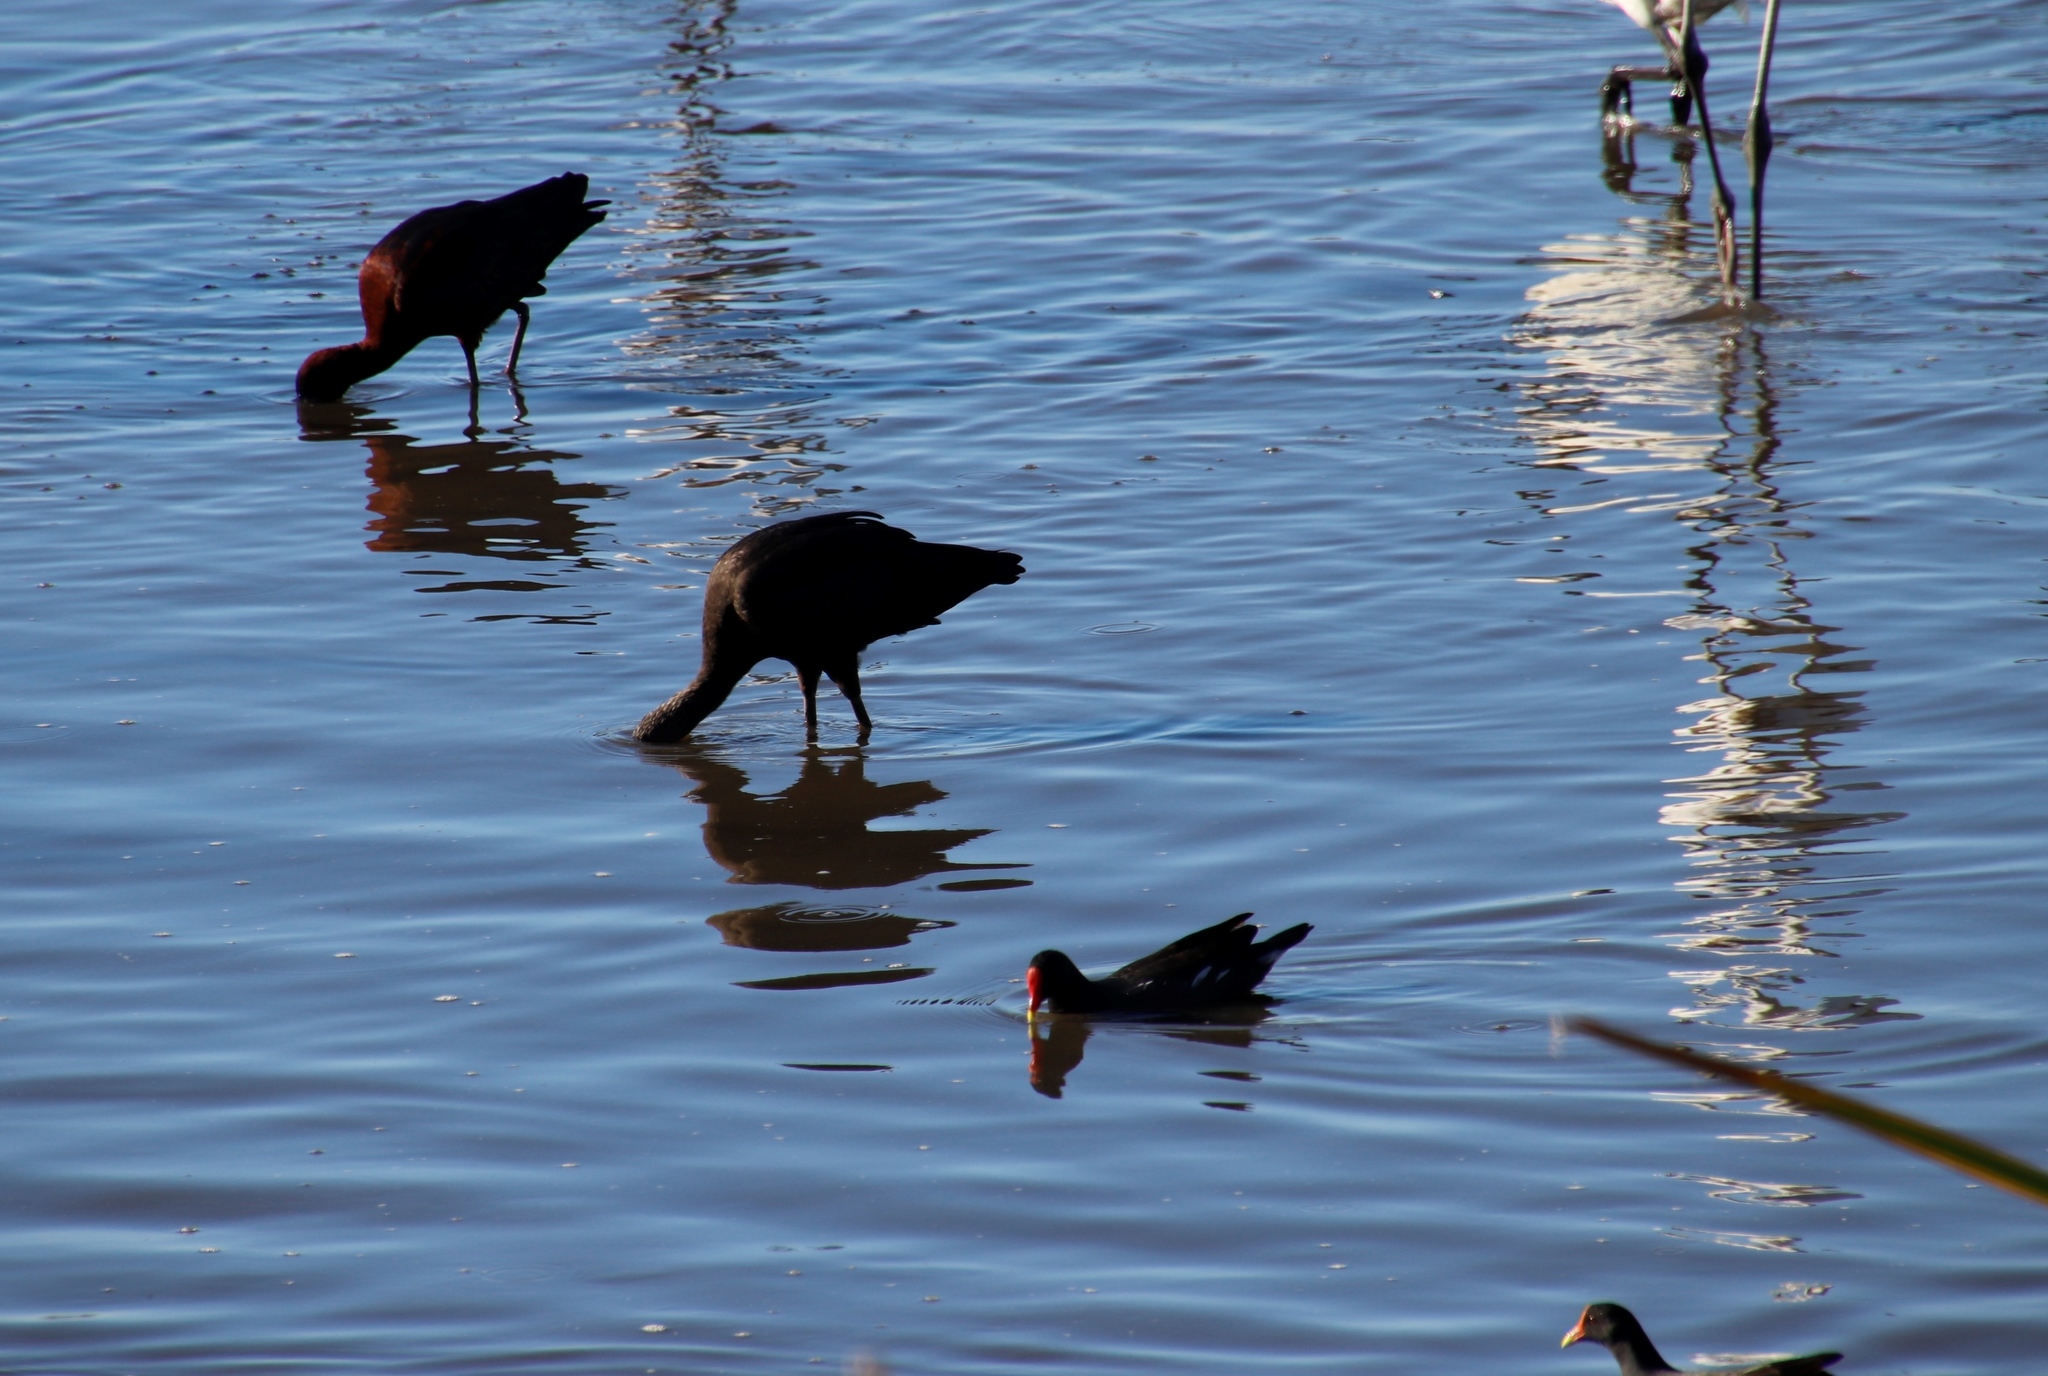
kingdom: Animalia
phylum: Chordata
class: Aves
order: Pelecaniformes
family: Threskiornithidae
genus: Plegadis
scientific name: Plegadis falcinellus
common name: Glossy ibis
